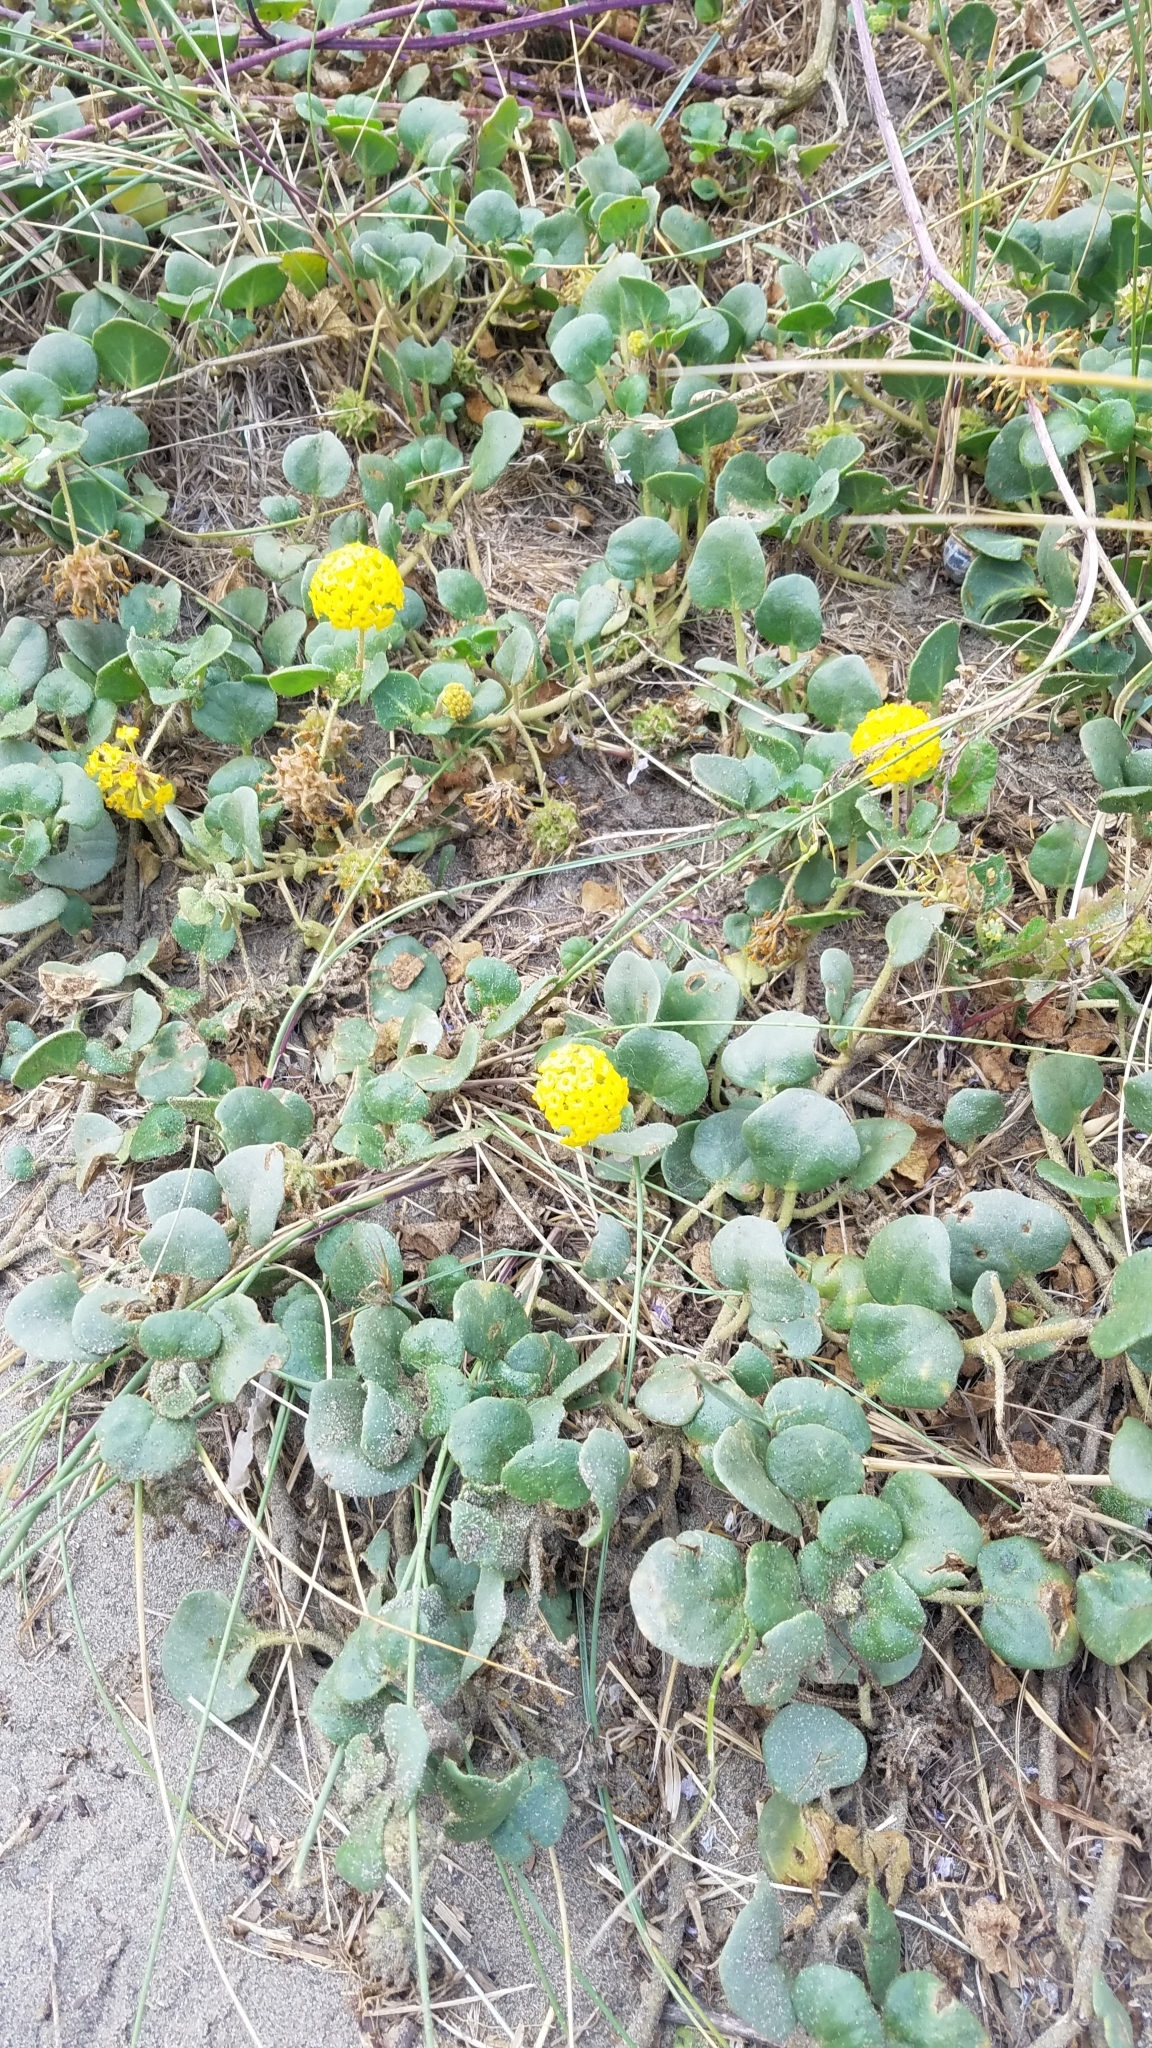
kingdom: Plantae
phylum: Tracheophyta
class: Magnoliopsida
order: Caryophyllales
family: Nyctaginaceae
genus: Abronia
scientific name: Abronia latifolia
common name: Yellow sand-verbena
